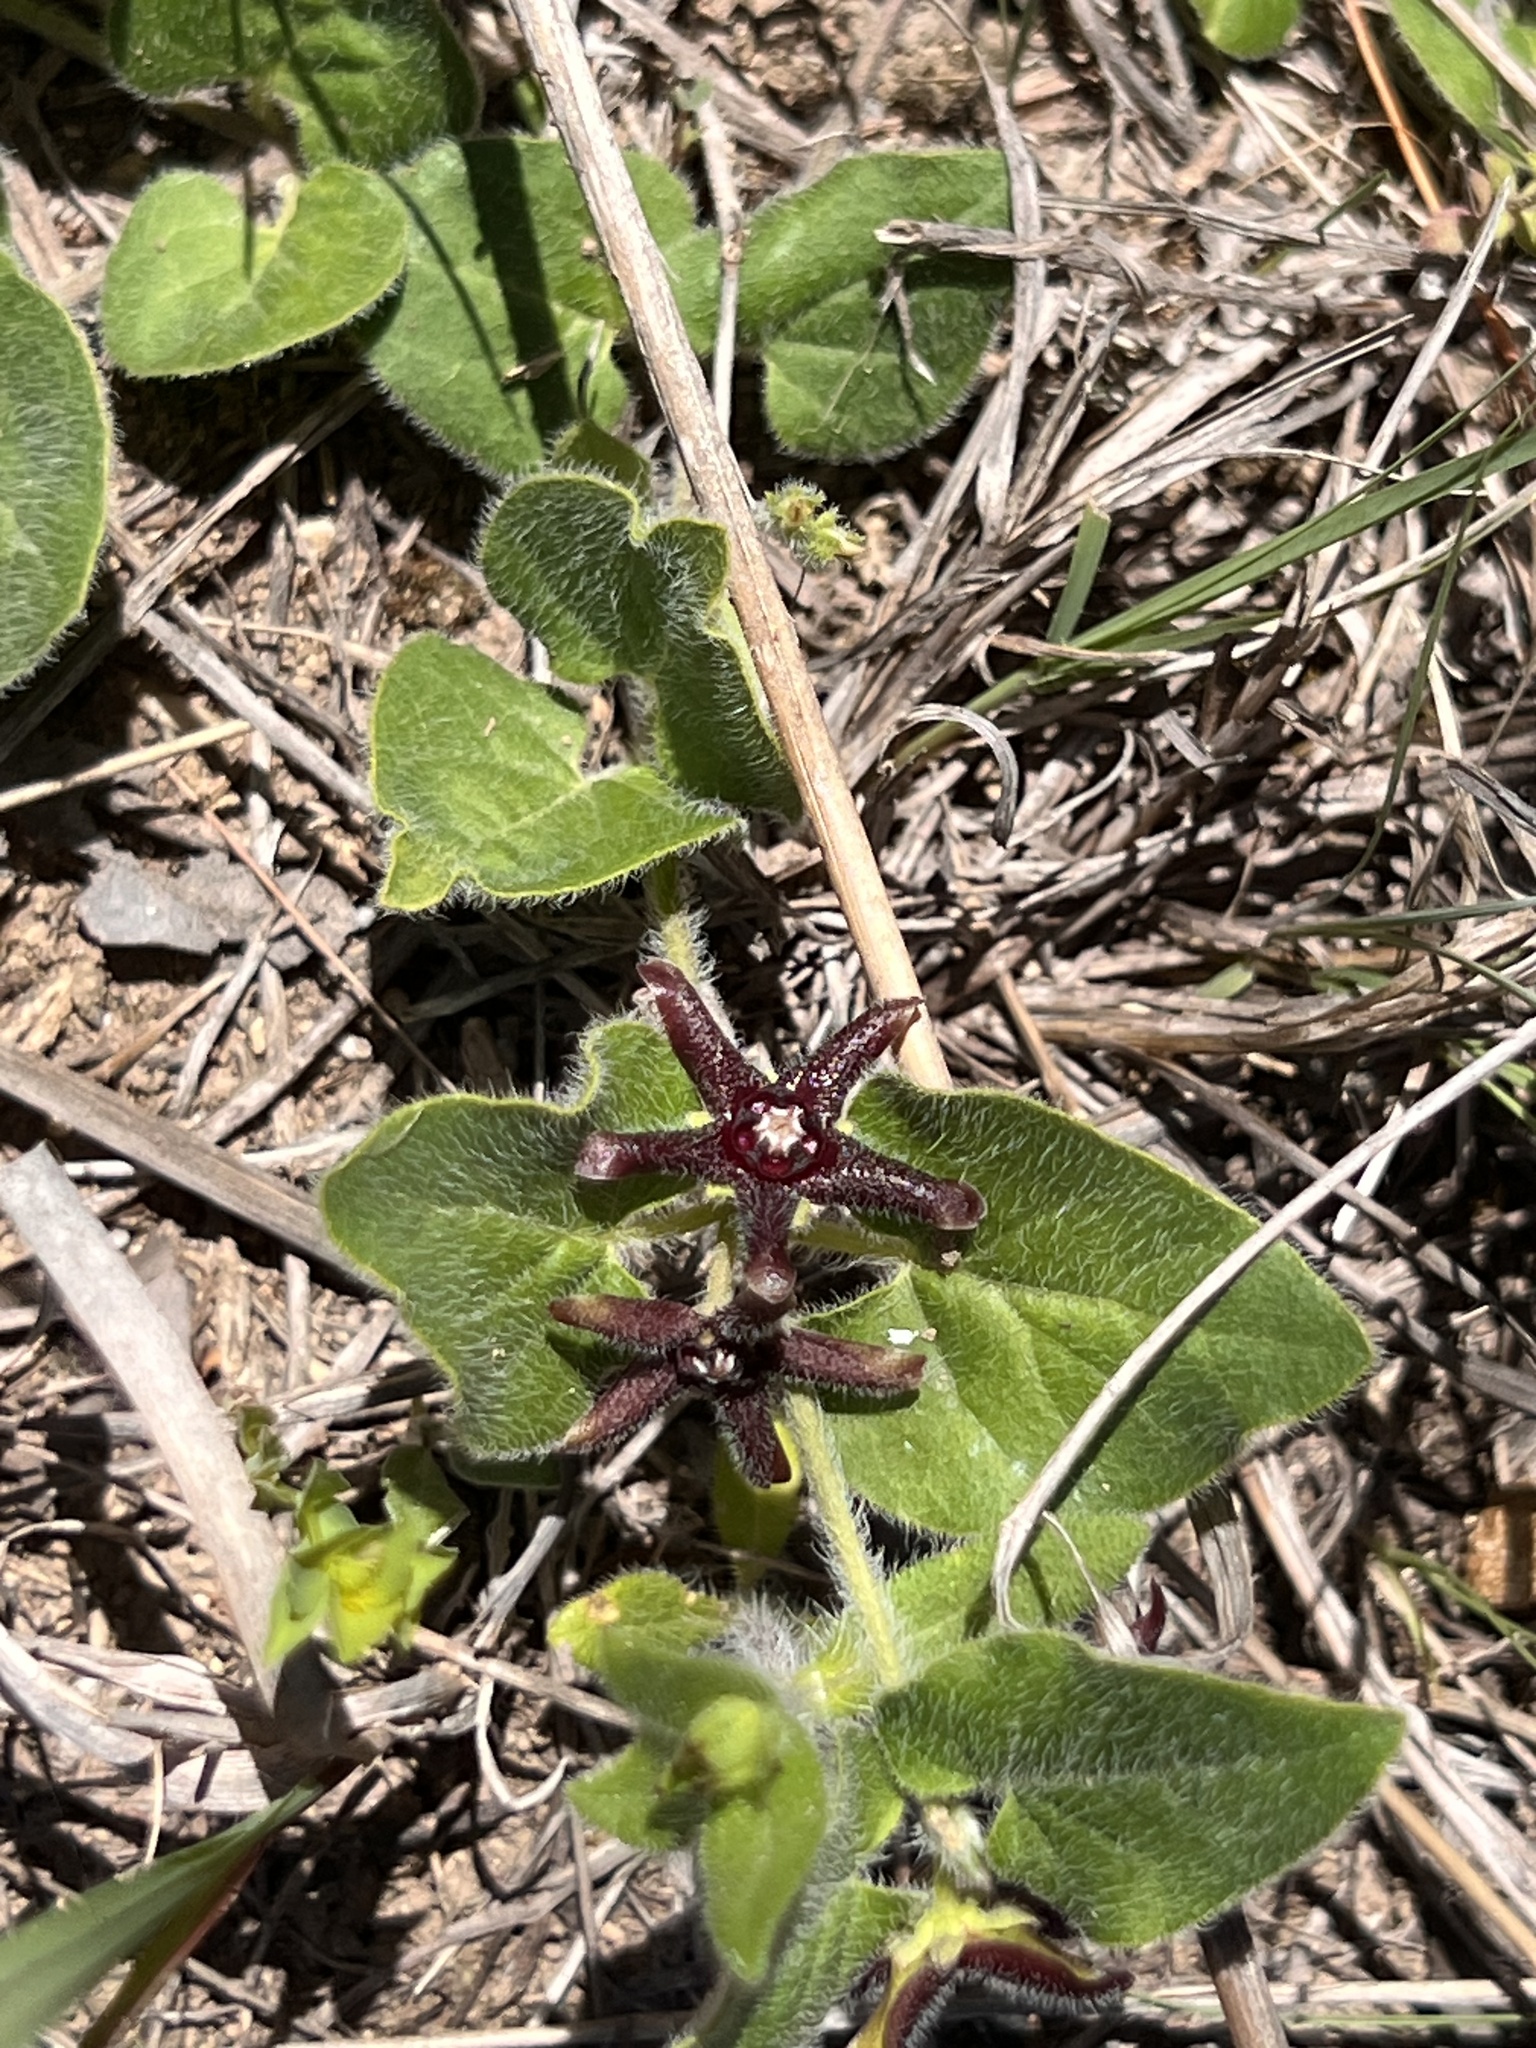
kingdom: Plantae
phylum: Tracheophyta
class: Magnoliopsida
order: Gentianales
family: Apocynaceae
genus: Chthamalia
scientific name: Chthamalia biflora
